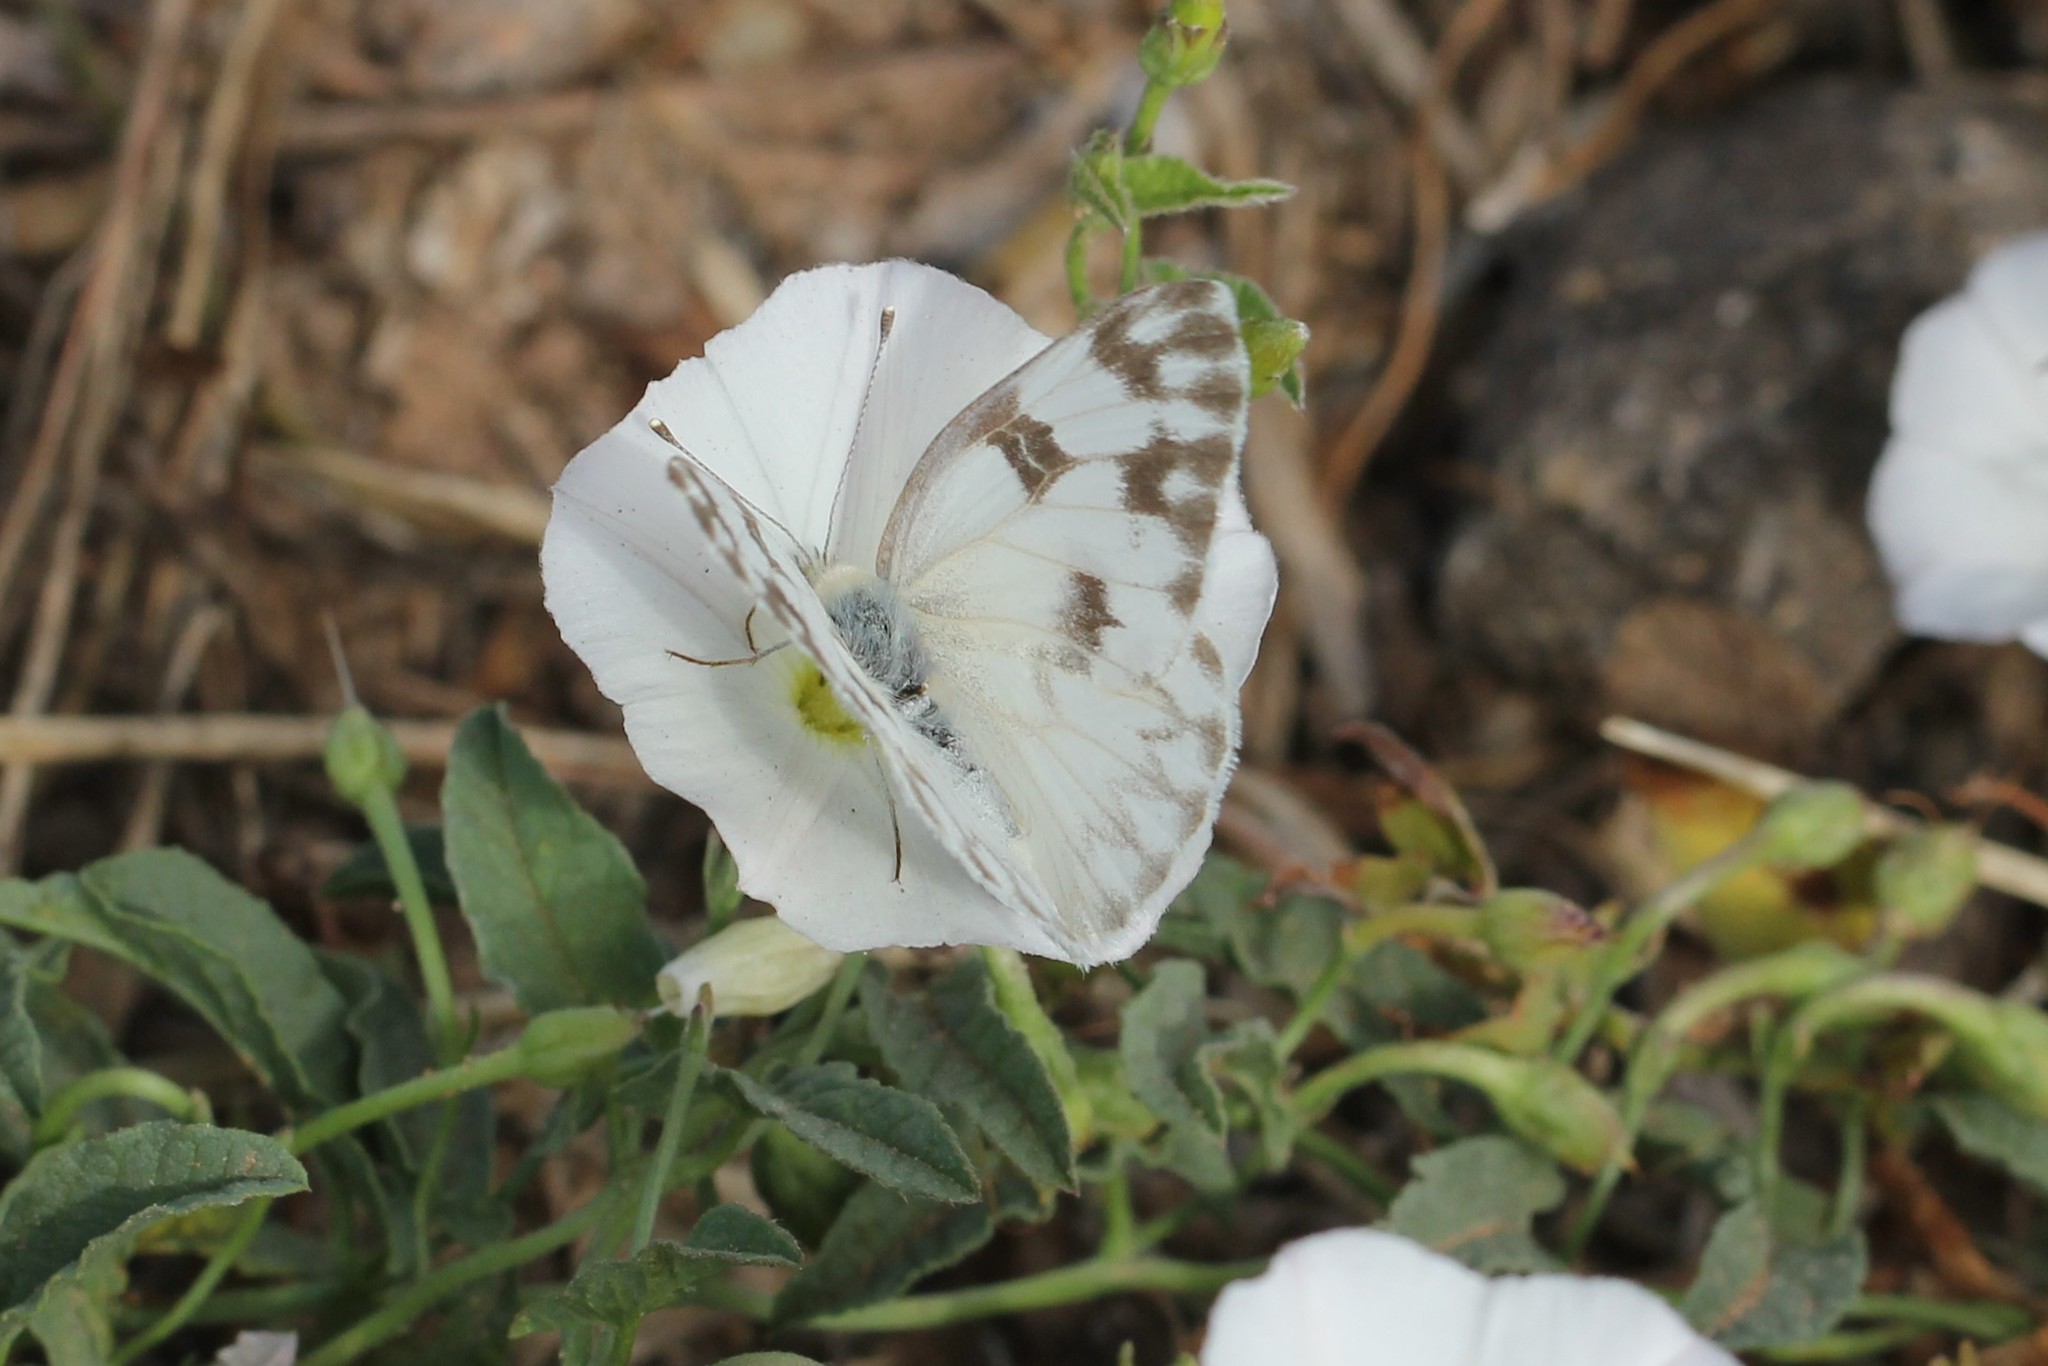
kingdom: Animalia
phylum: Arthropoda
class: Insecta
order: Lepidoptera
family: Pieridae
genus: Pontia
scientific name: Pontia protodice
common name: Checkered white
